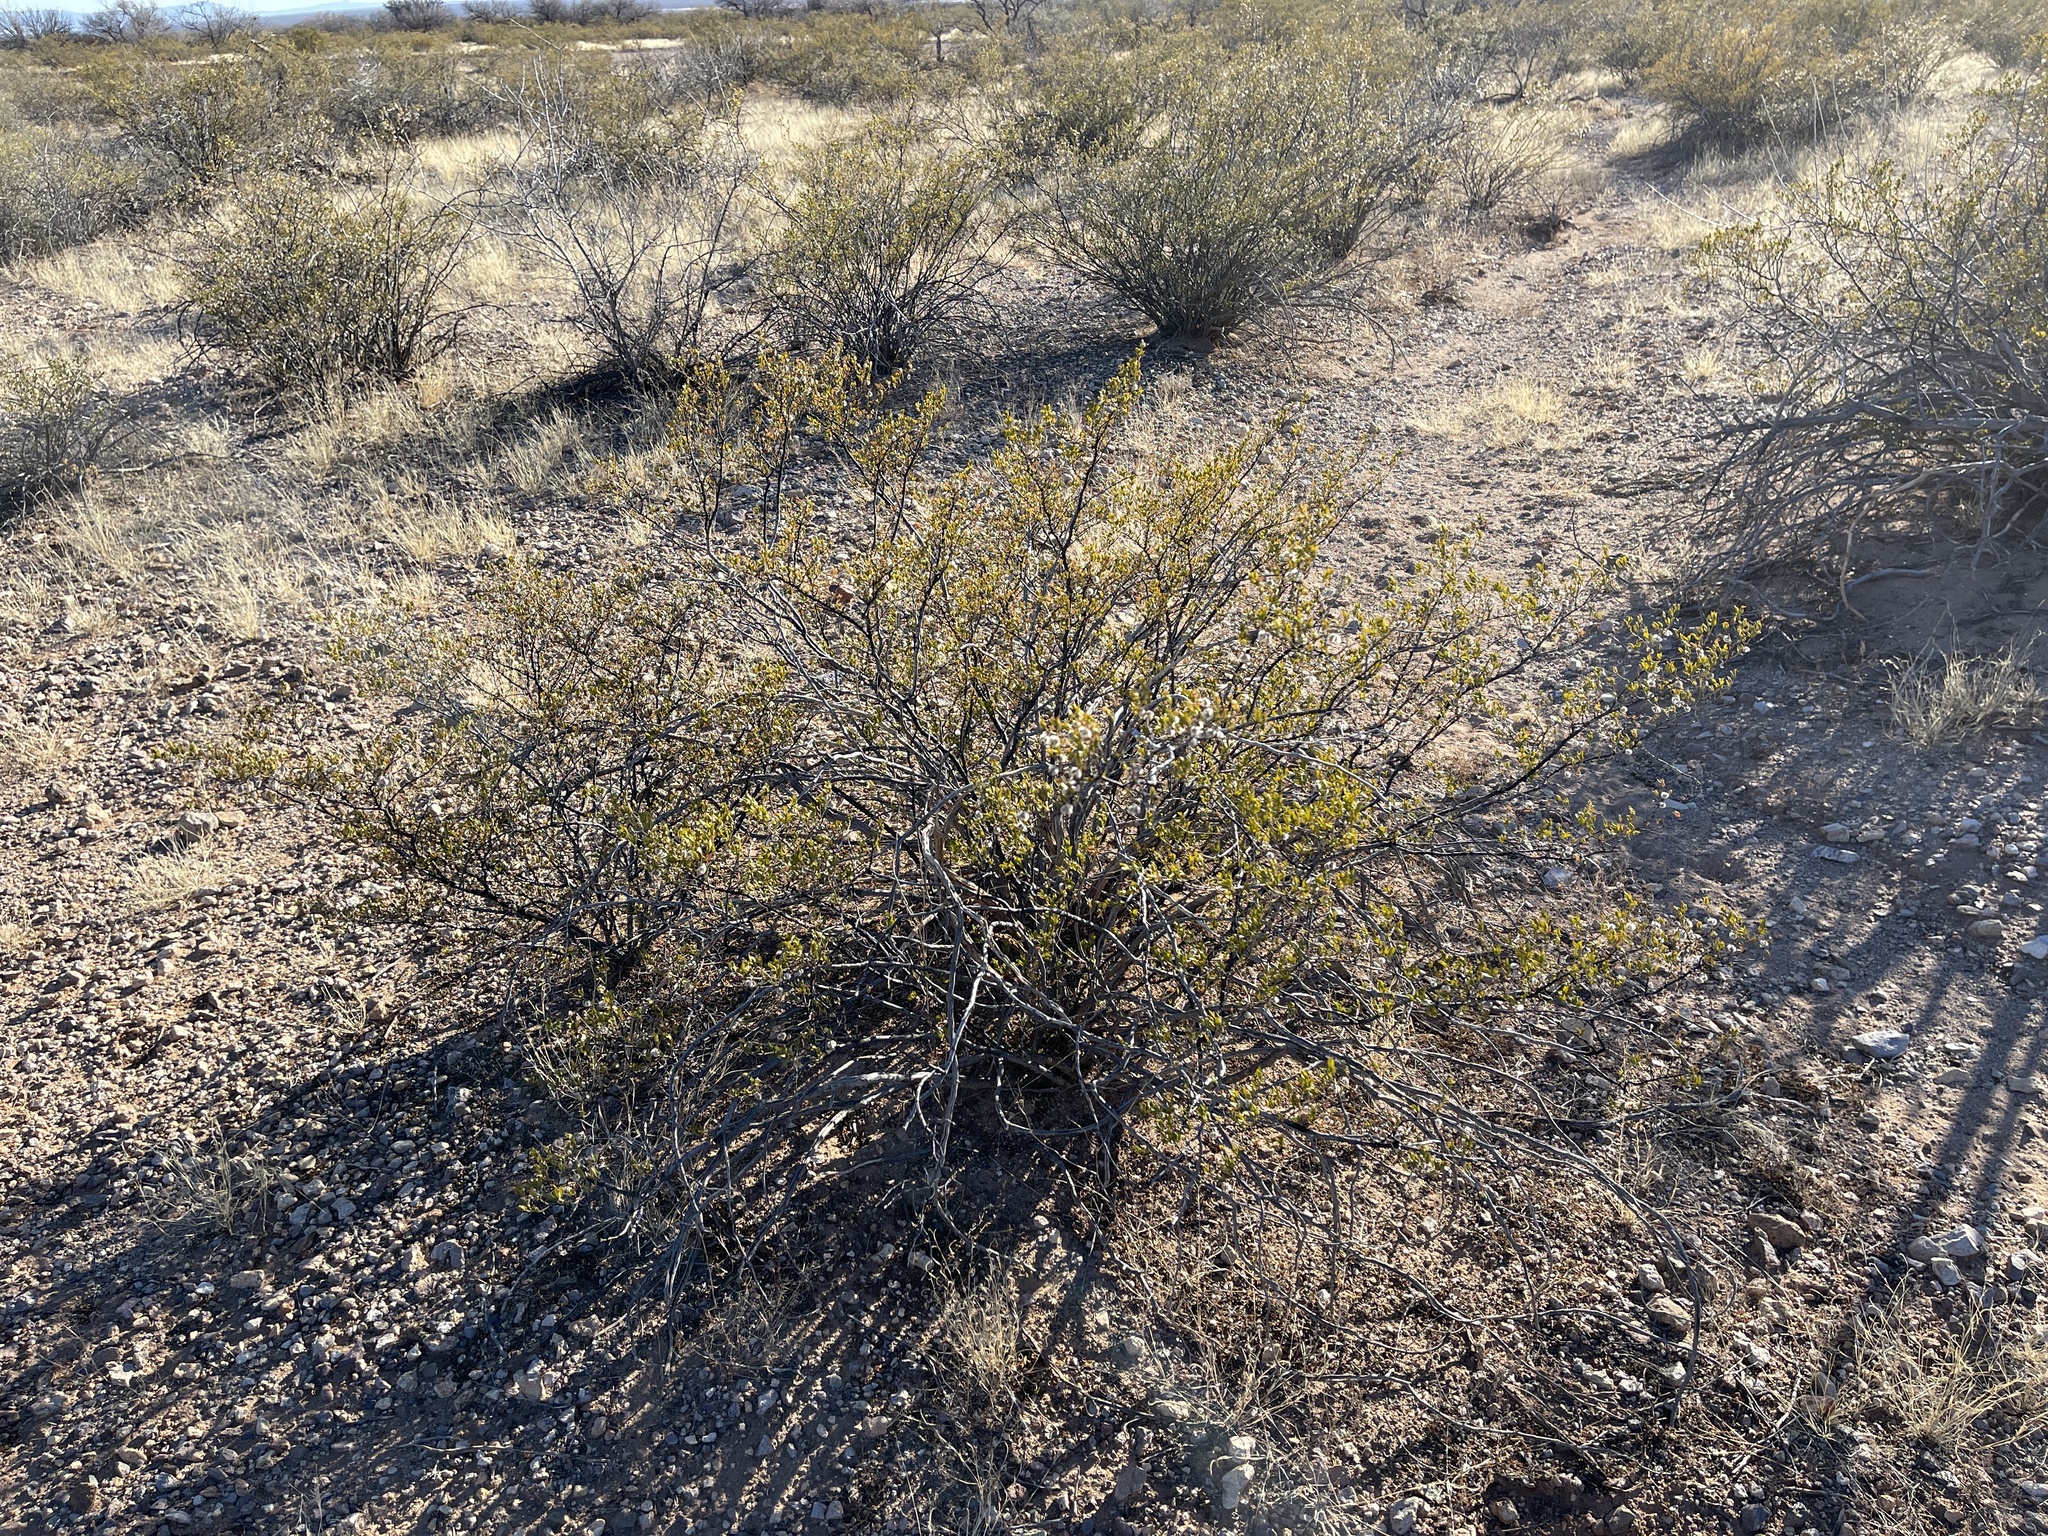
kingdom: Plantae
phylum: Tracheophyta
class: Magnoliopsida
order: Zygophyllales
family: Zygophyllaceae
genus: Larrea
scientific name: Larrea tridentata
